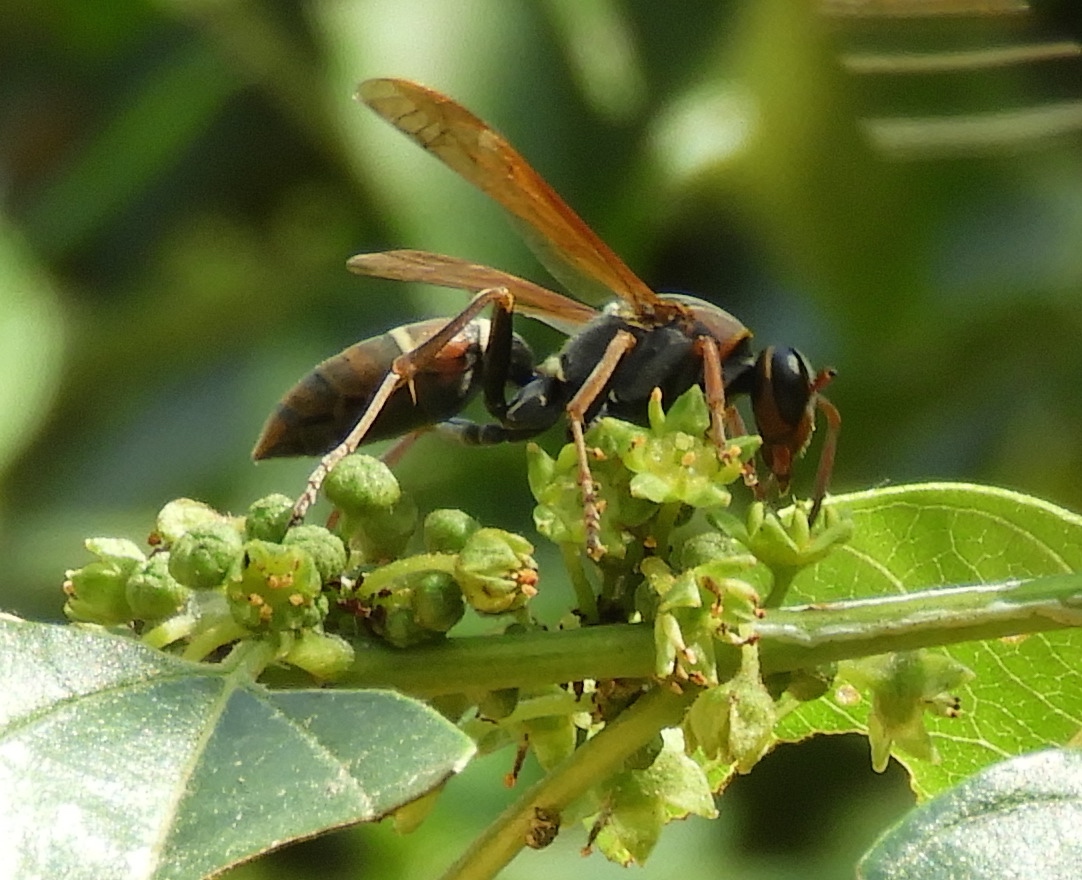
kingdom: Animalia
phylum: Arthropoda
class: Insecta
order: Hymenoptera
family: Eumenidae
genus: Polistes
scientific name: Polistes pacificus
